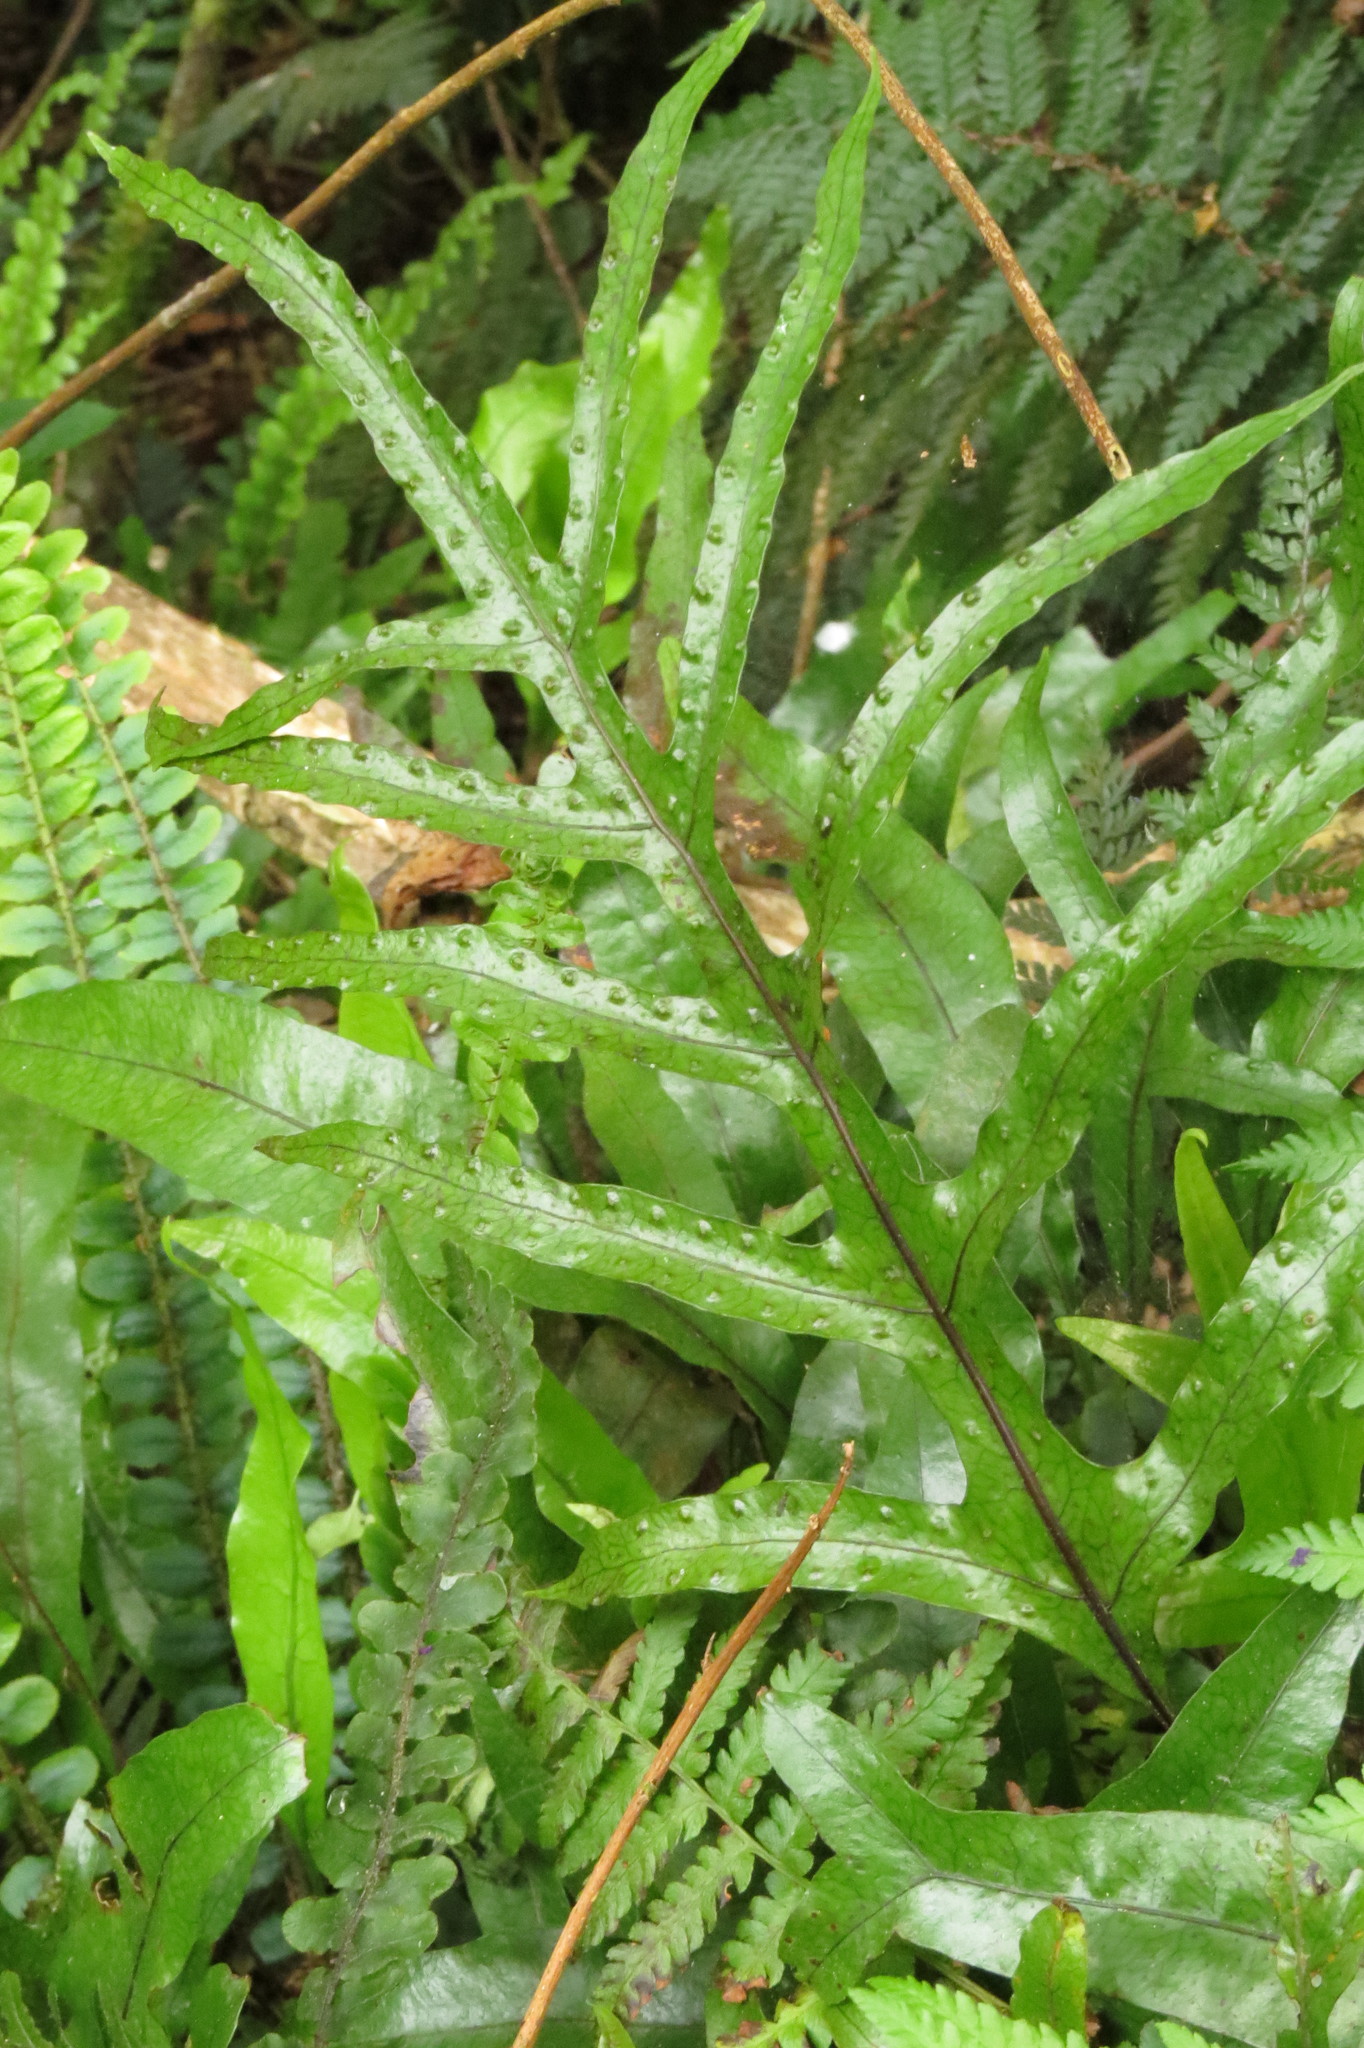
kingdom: Plantae
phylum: Tracheophyta
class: Polypodiopsida
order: Polypodiales
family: Polypodiaceae
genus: Lecanopteris
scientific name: Lecanopteris pustulata
